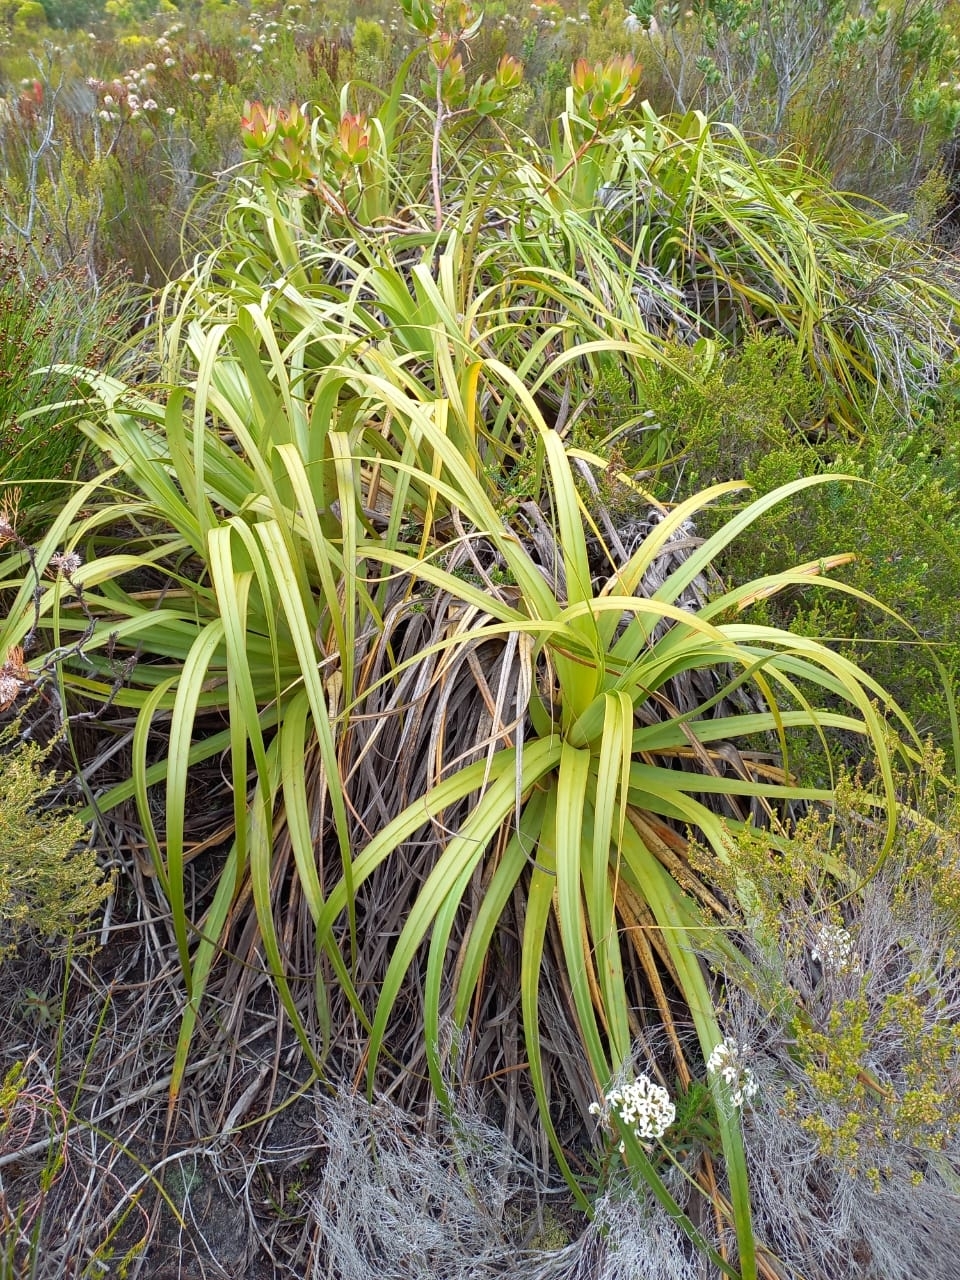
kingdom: Plantae
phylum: Tracheophyta
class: Liliopsida
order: Poales
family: Cyperaceae
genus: Tetraria
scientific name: Tetraria thermalis
